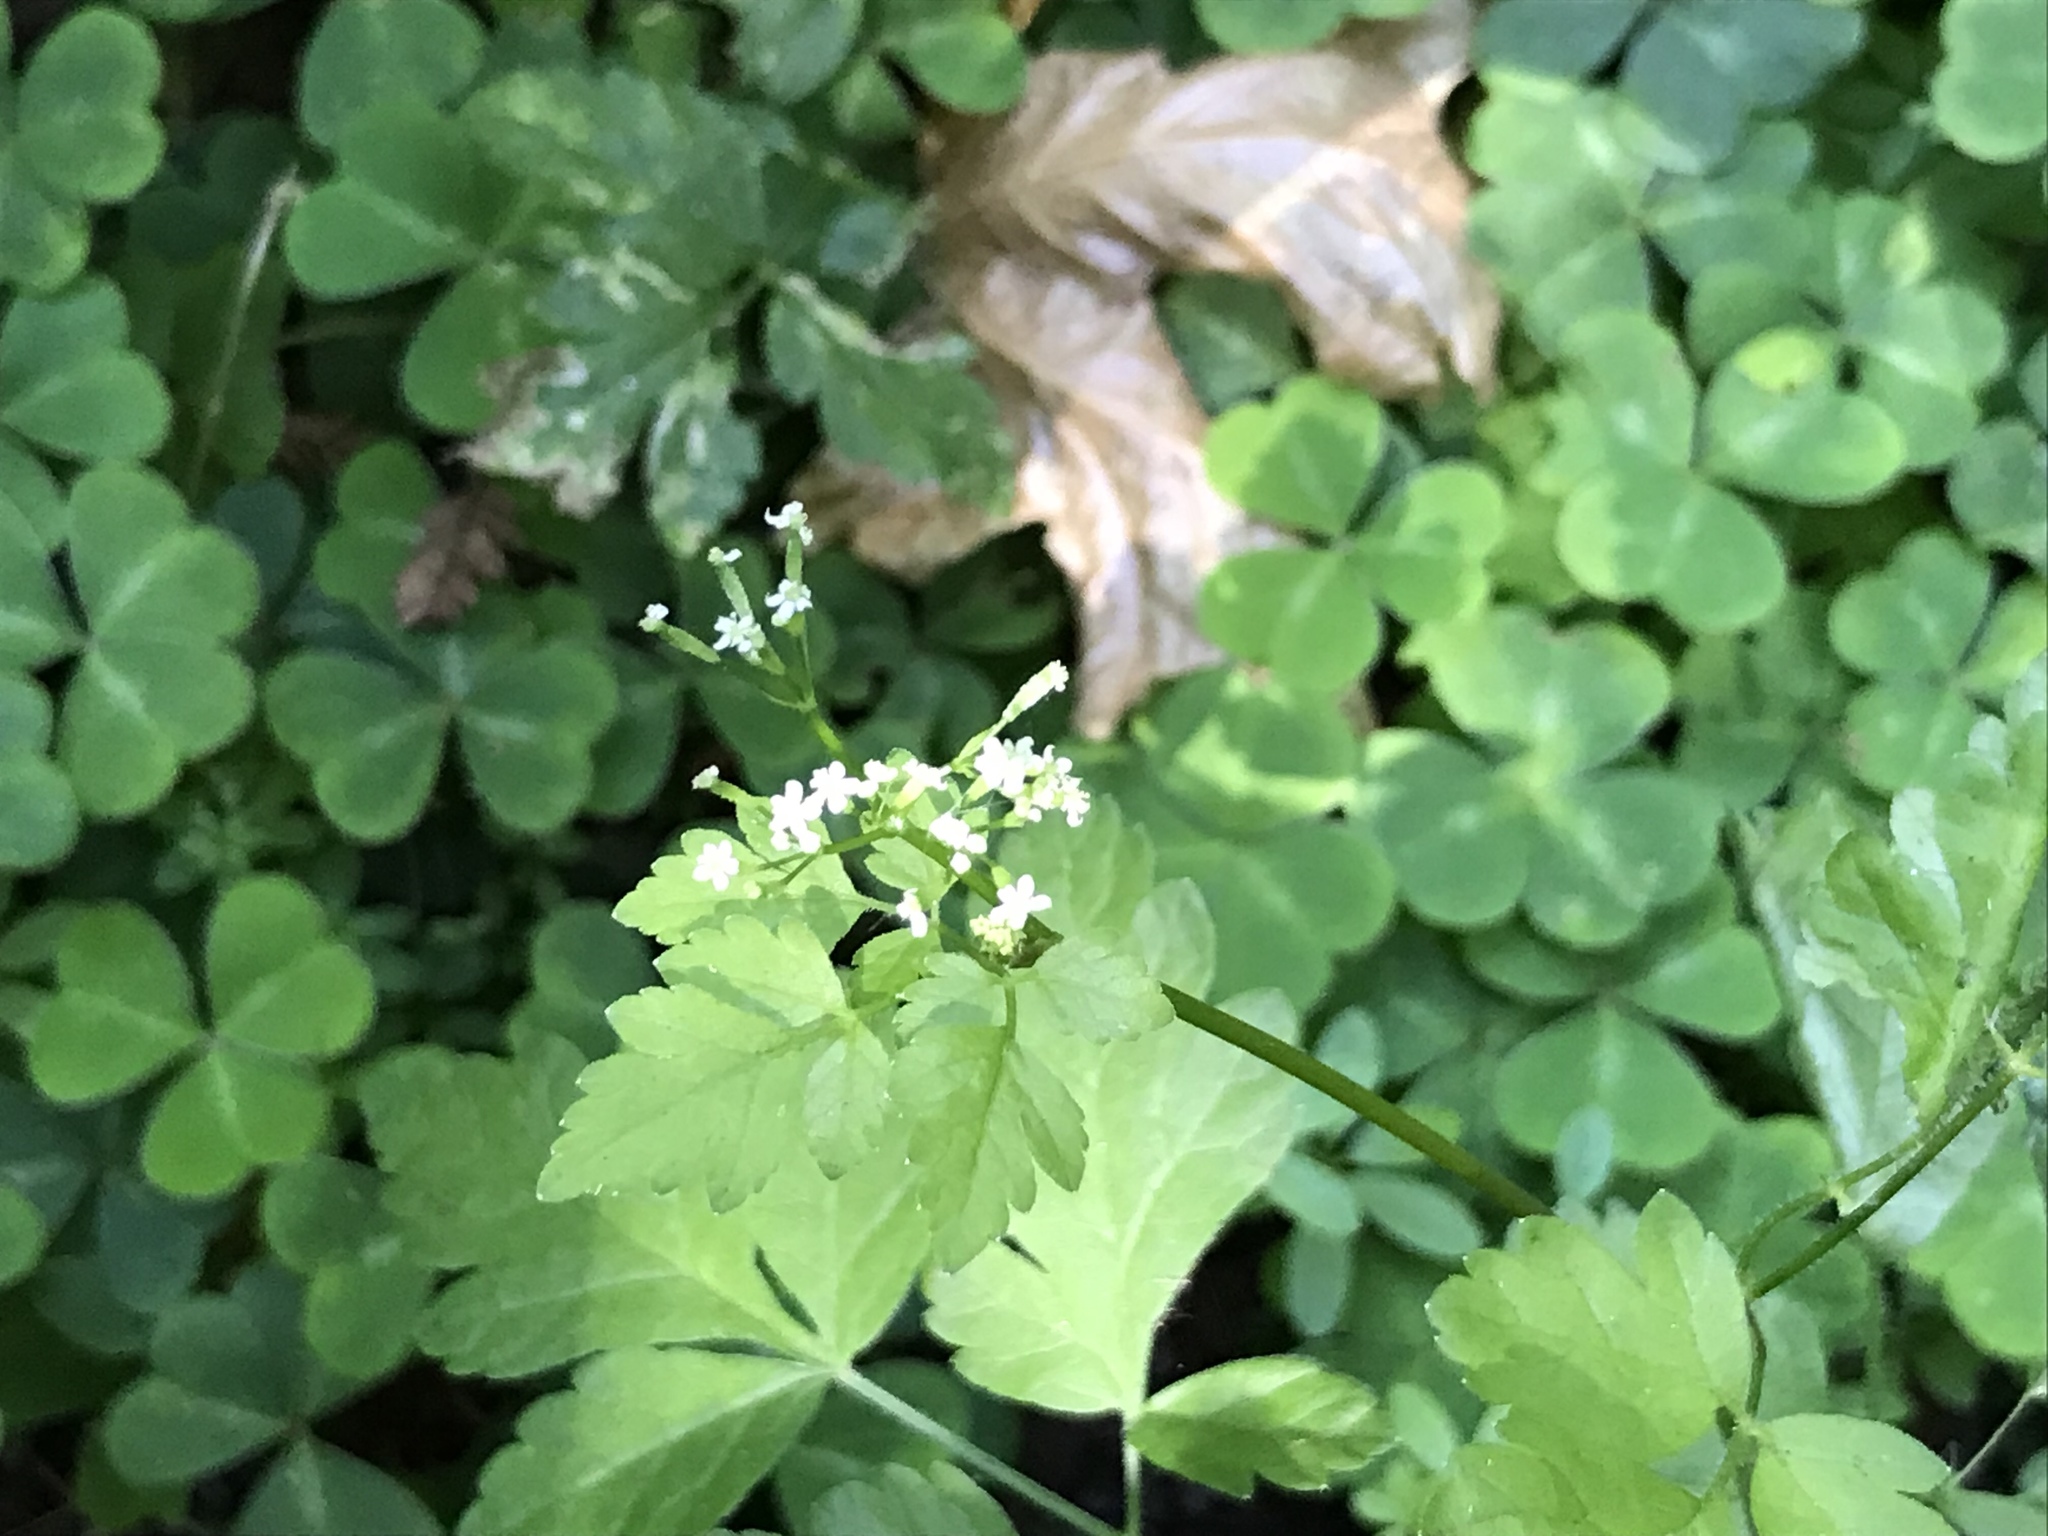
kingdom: Plantae
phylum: Tracheophyta
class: Magnoliopsida
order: Apiales
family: Apiaceae
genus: Osmorhiza
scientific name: Osmorhiza berteroi
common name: Mountain sweet cicely
